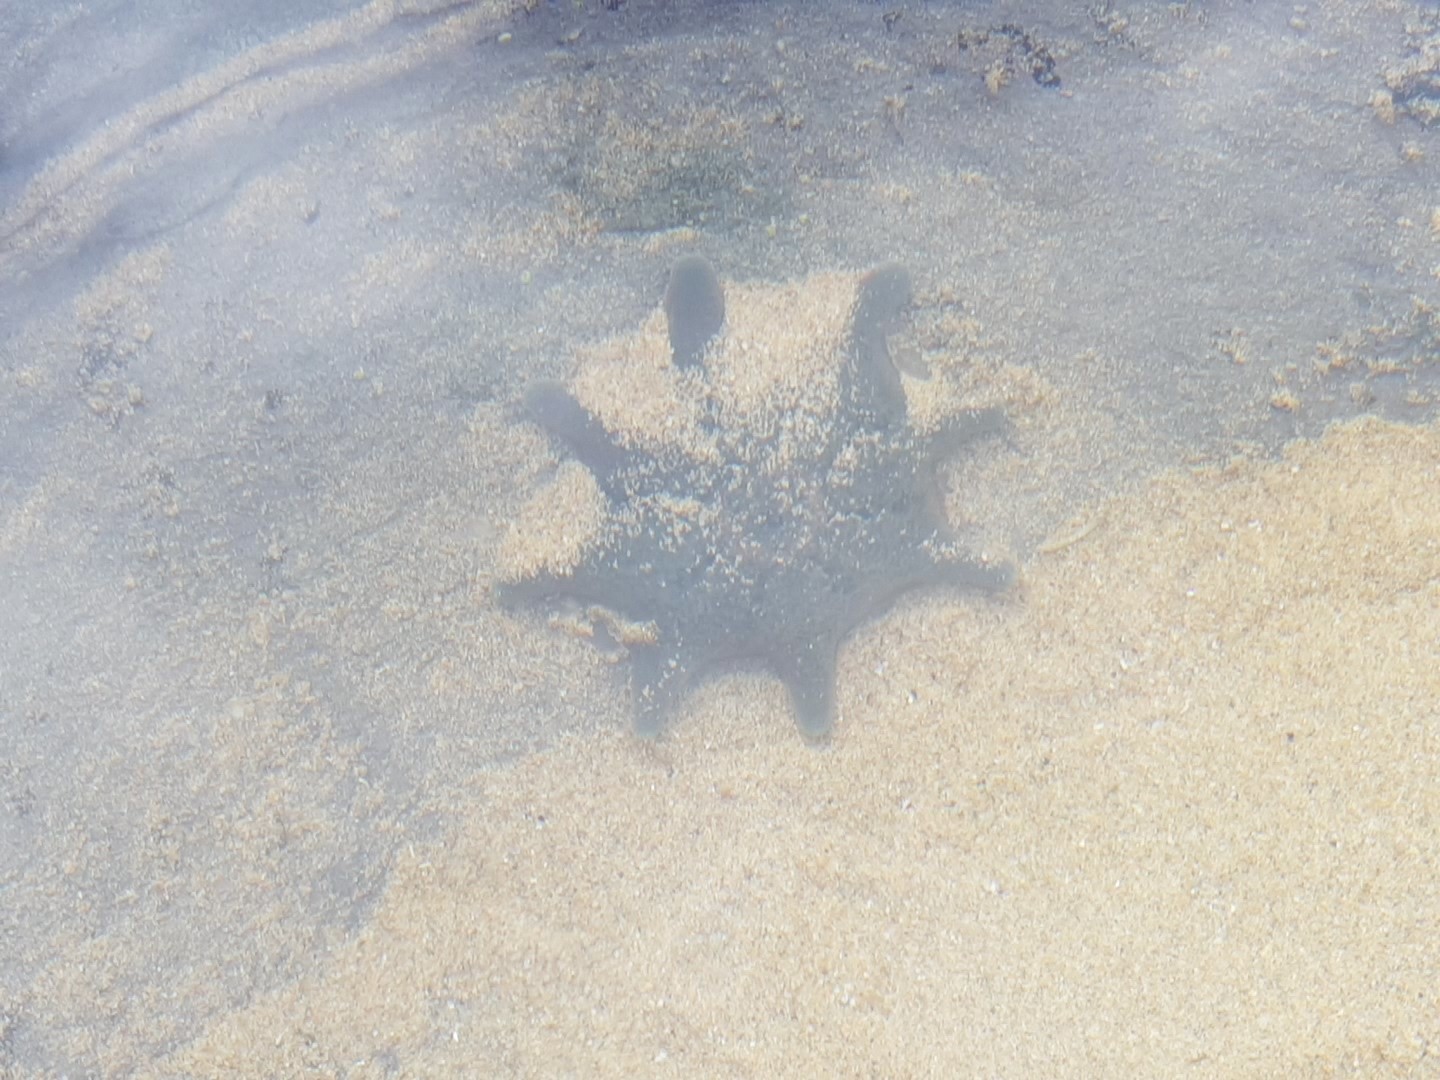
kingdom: Animalia
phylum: Echinodermata
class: Asteroidea
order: Valvatida
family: Asterinidae
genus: Meridiastra
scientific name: Meridiastra calcar
